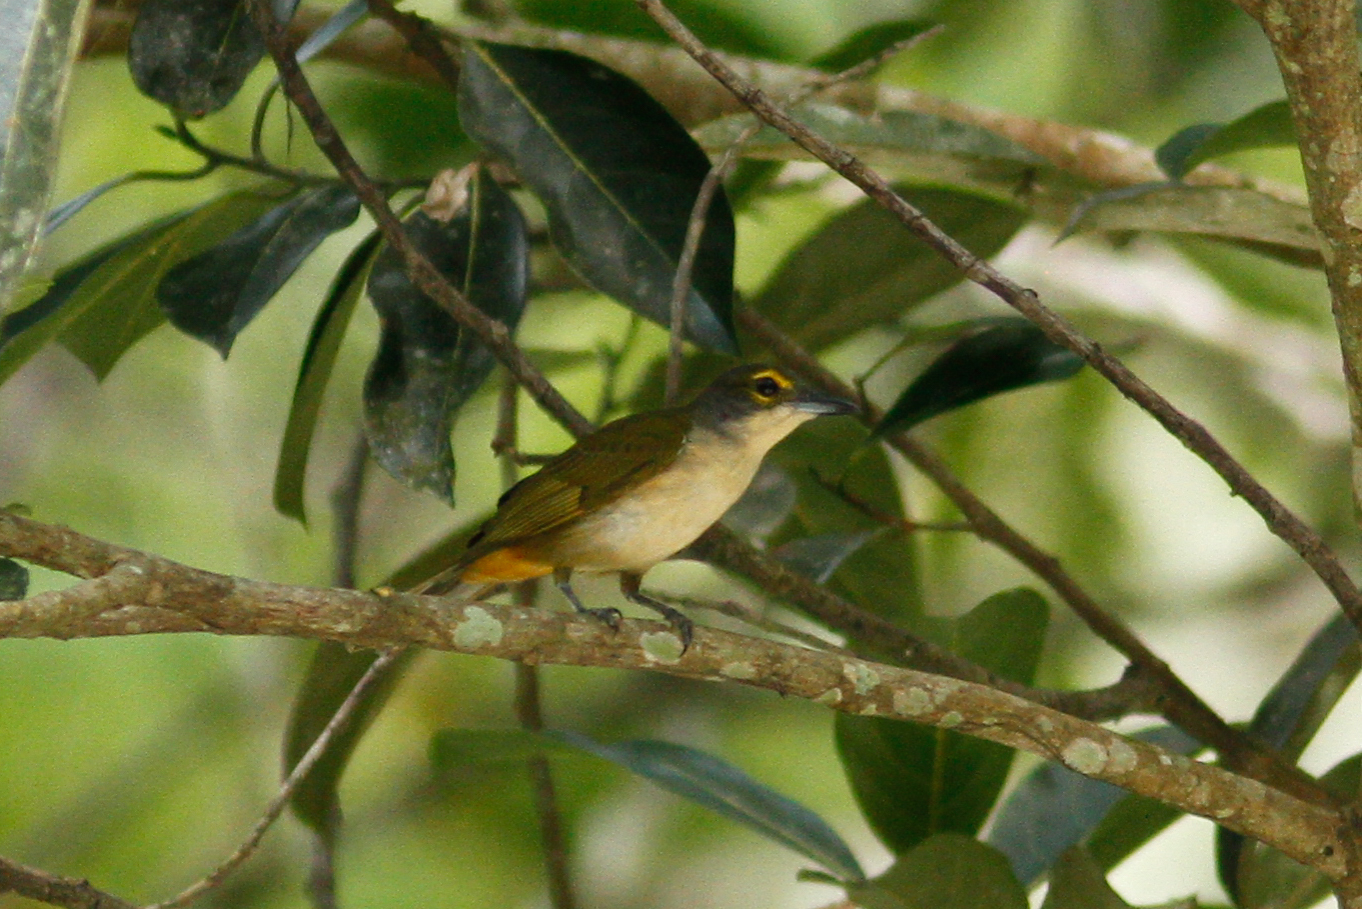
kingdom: Animalia
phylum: Chordata
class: Aves
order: Passeriformes
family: Thraupidae
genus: Tachyphonus
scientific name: Tachyphonus surinamus
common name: Fulvous-crested tanager
